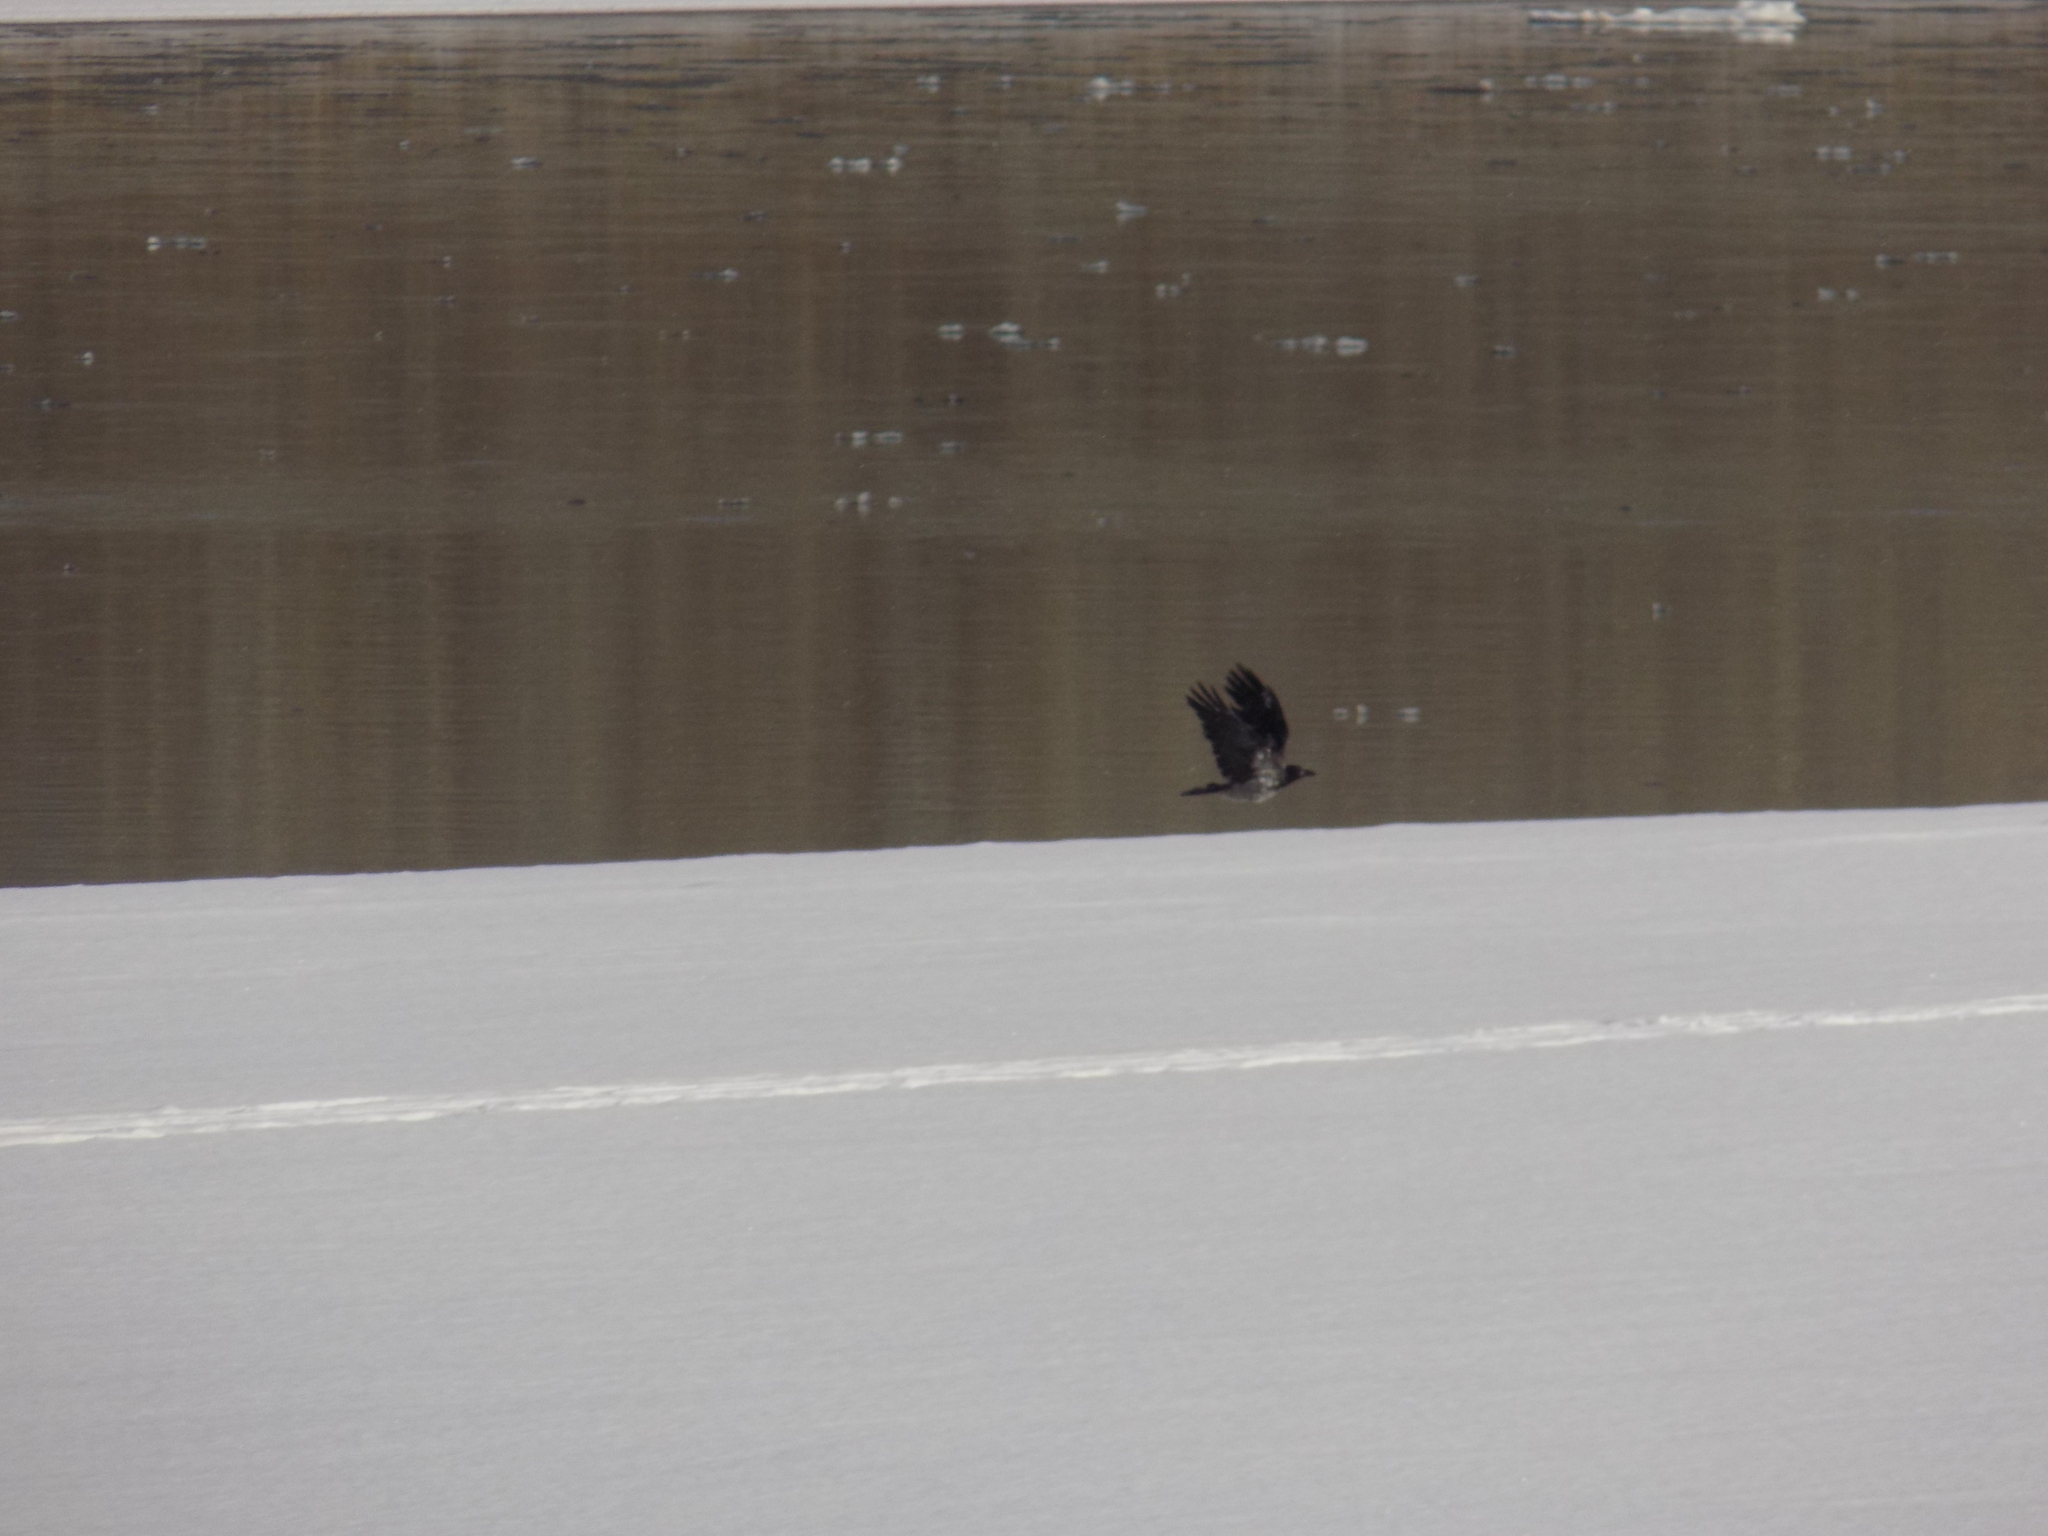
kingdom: Animalia
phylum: Chordata
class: Aves
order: Passeriformes
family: Corvidae
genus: Corvus
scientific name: Corvus cornix
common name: Hooded crow
